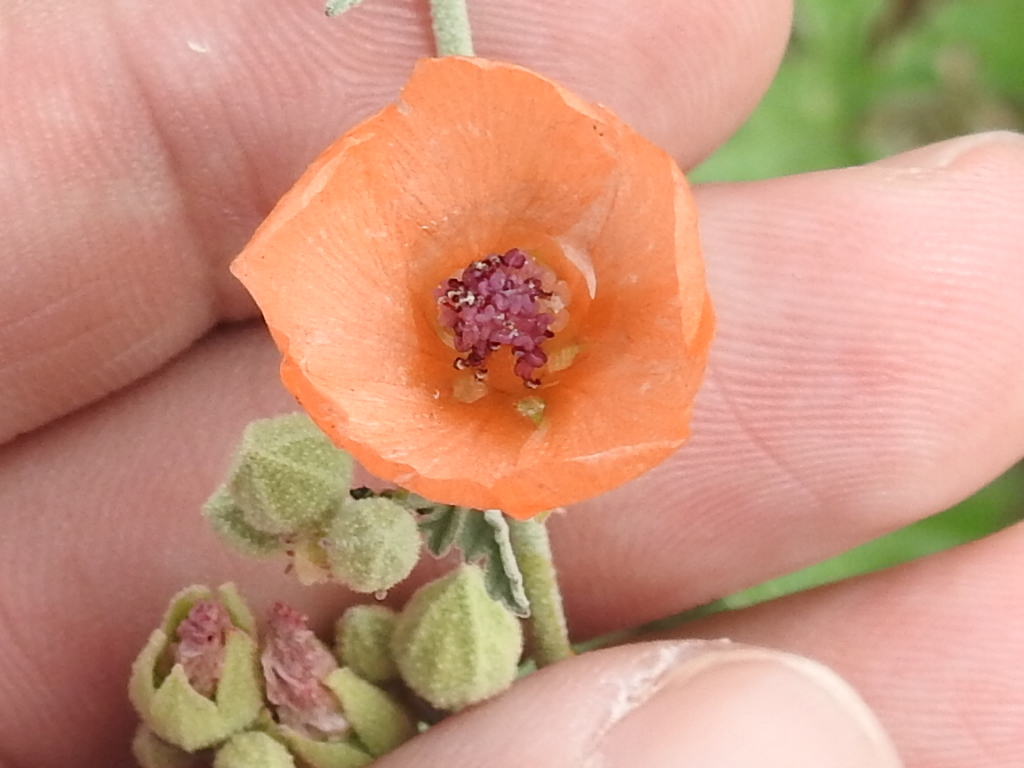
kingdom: Plantae
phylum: Tracheophyta
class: Magnoliopsida
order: Malvales
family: Malvaceae
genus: Sphaeralcea
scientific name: Sphaeralcea laxa
